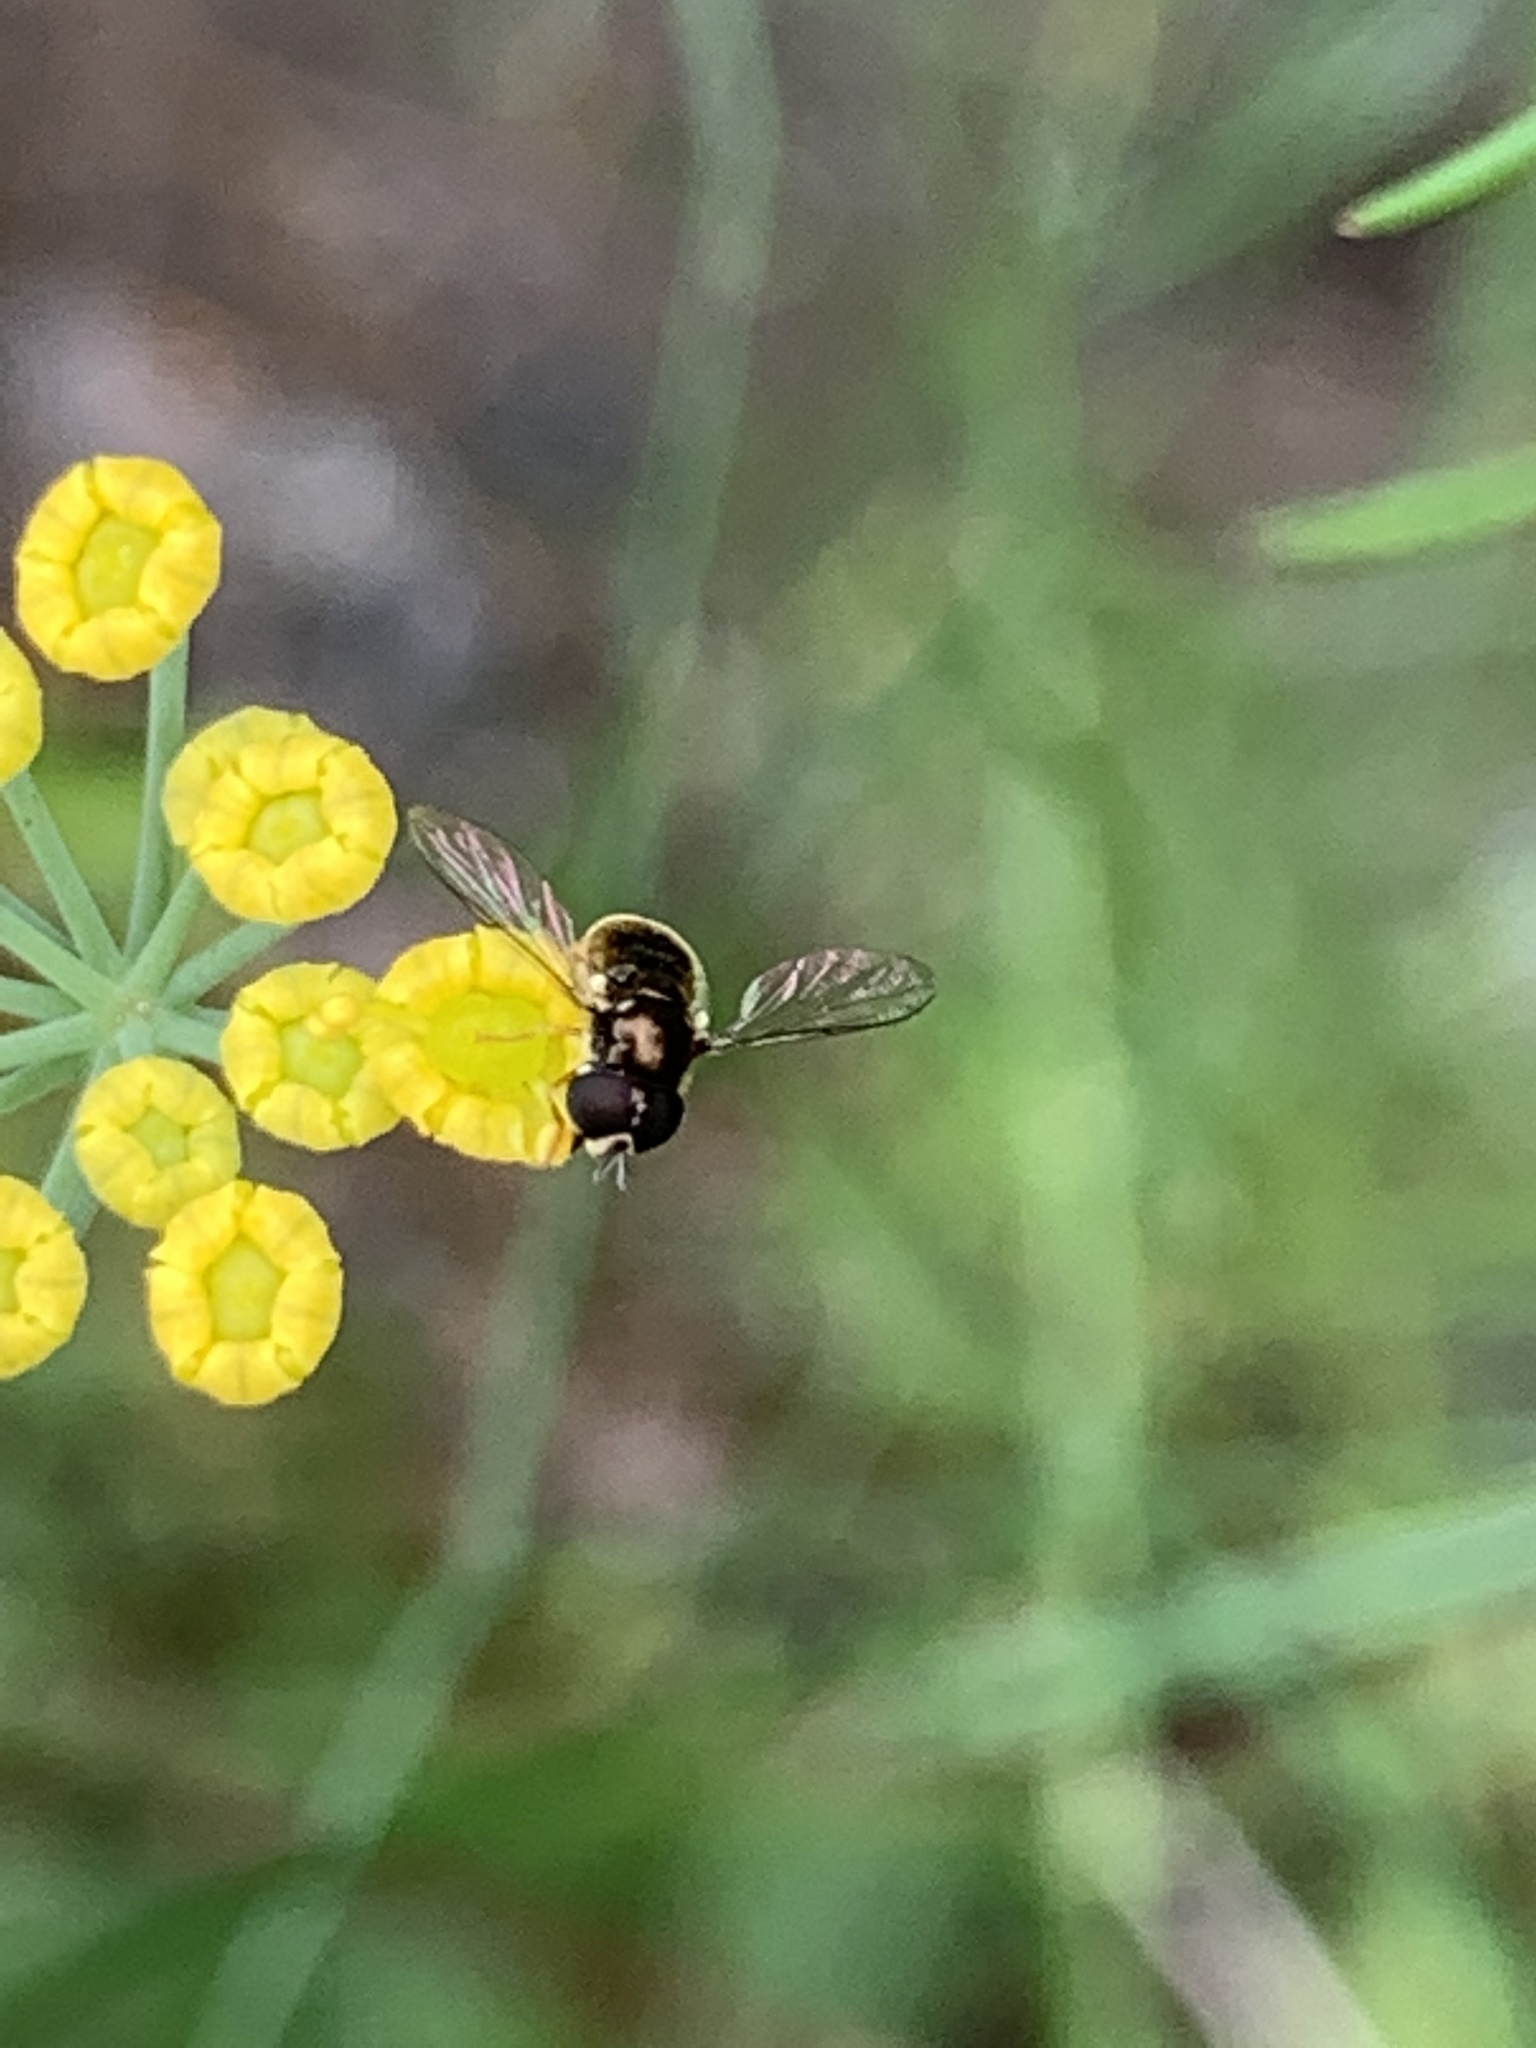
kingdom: Animalia
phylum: Arthropoda
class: Insecta
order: Diptera
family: Syrphidae
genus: Paragus
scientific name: Paragus haemorrhous
